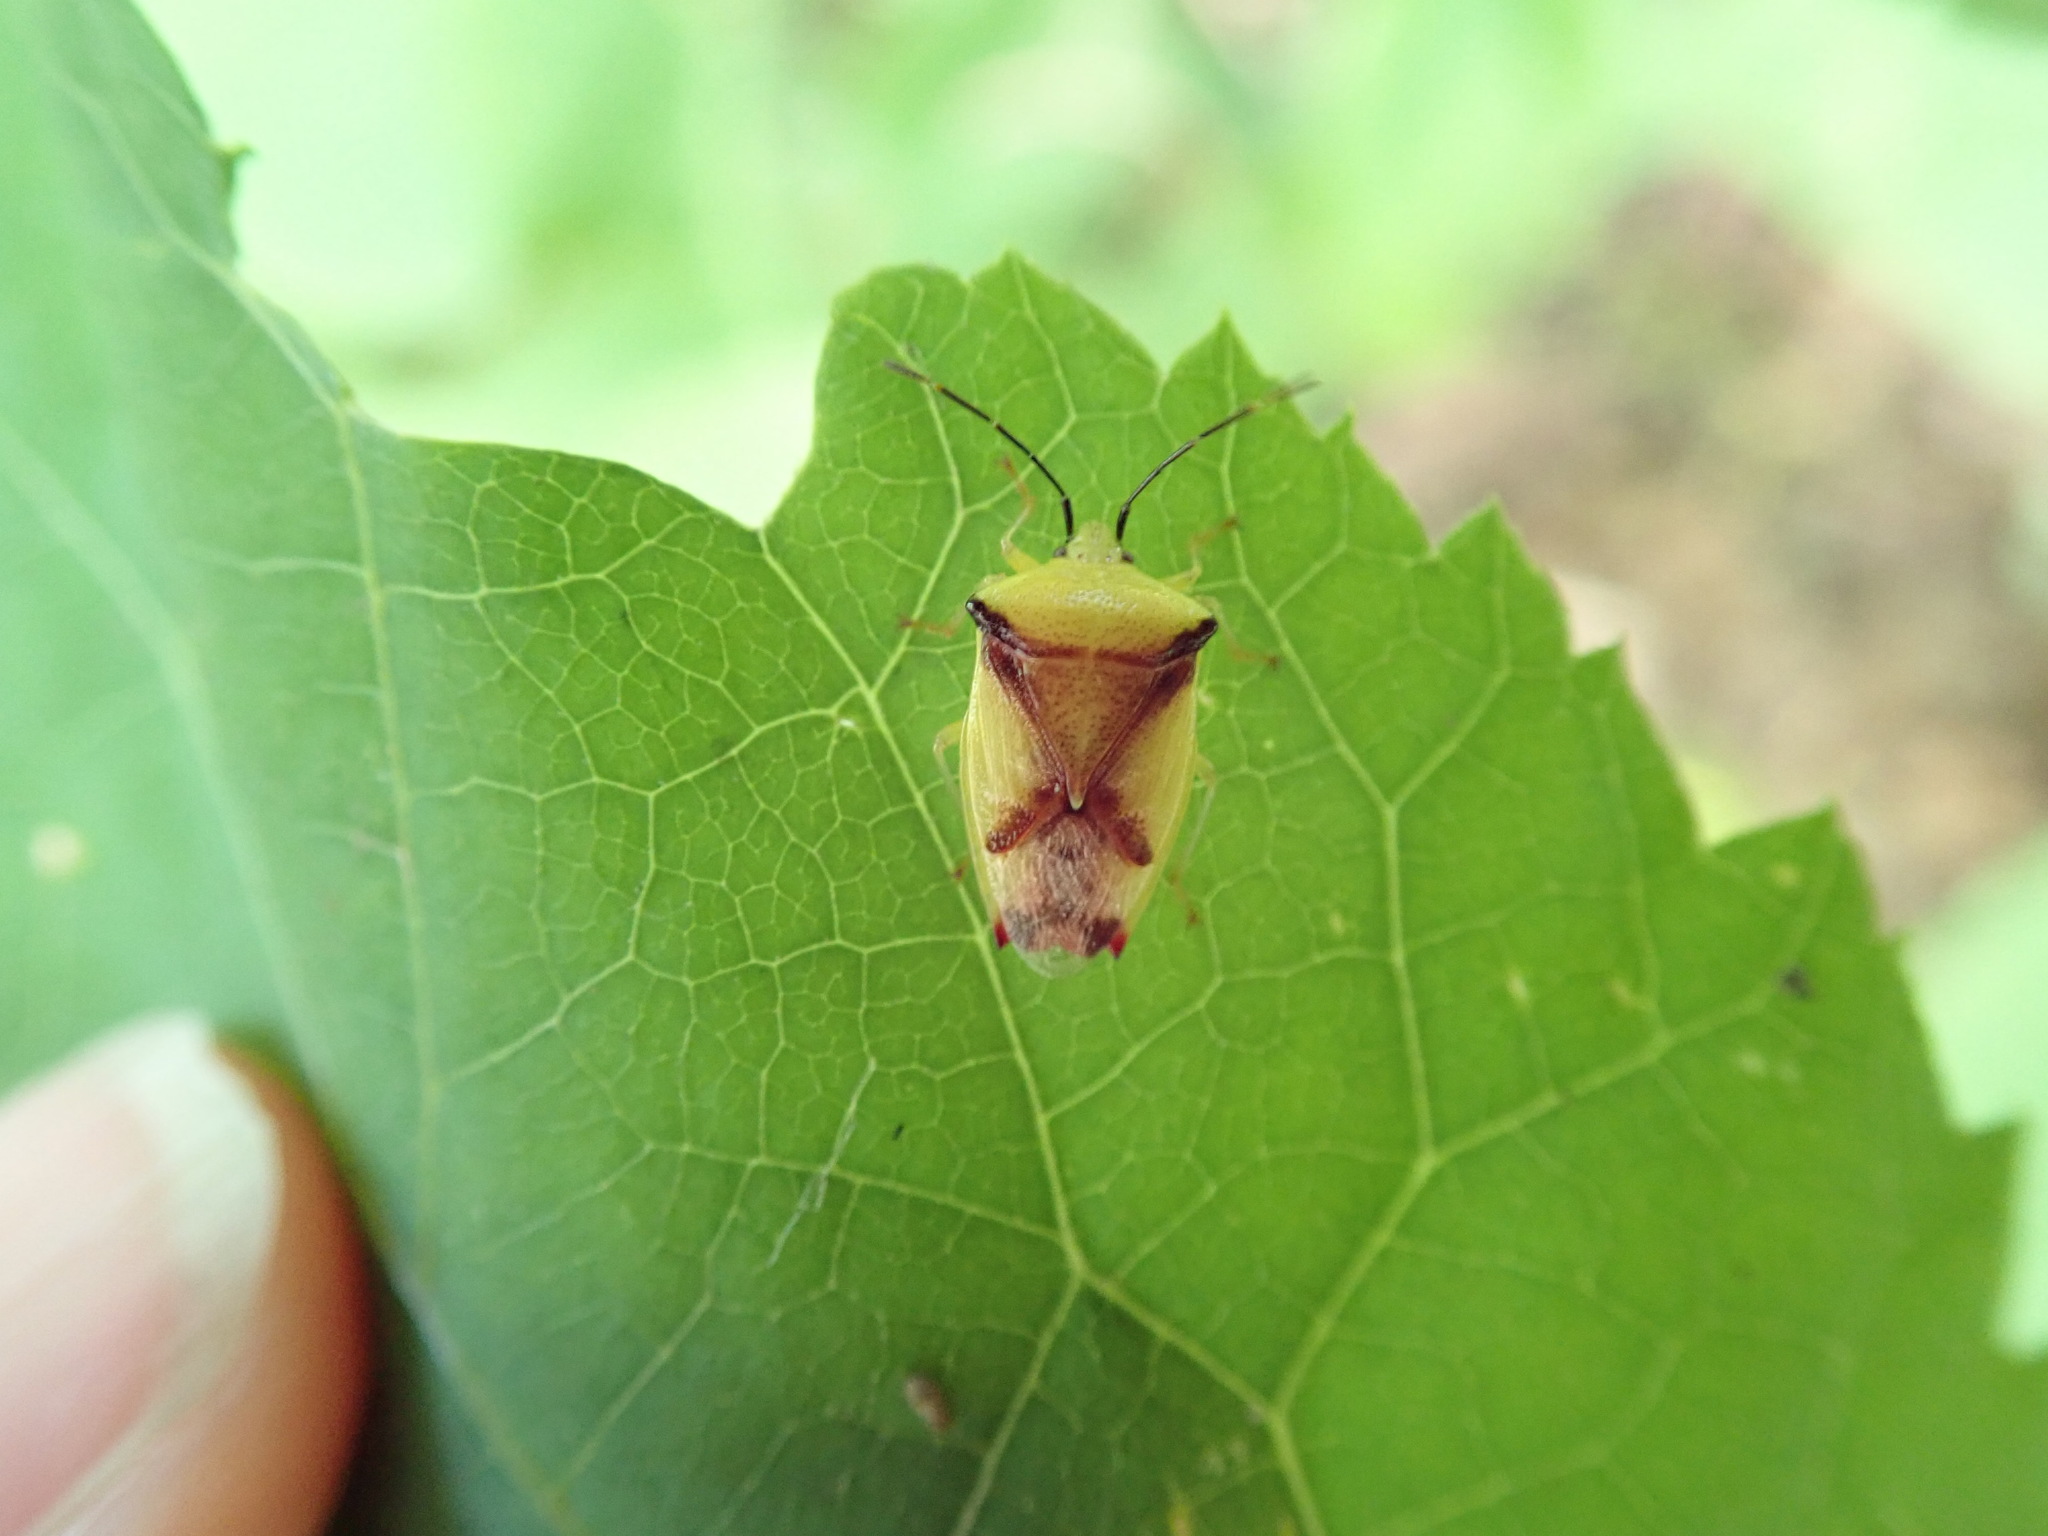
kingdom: Animalia
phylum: Arthropoda
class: Insecta
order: Hemiptera
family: Acanthosomatidae
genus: Elasmostethus
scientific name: Elasmostethus atricornis
